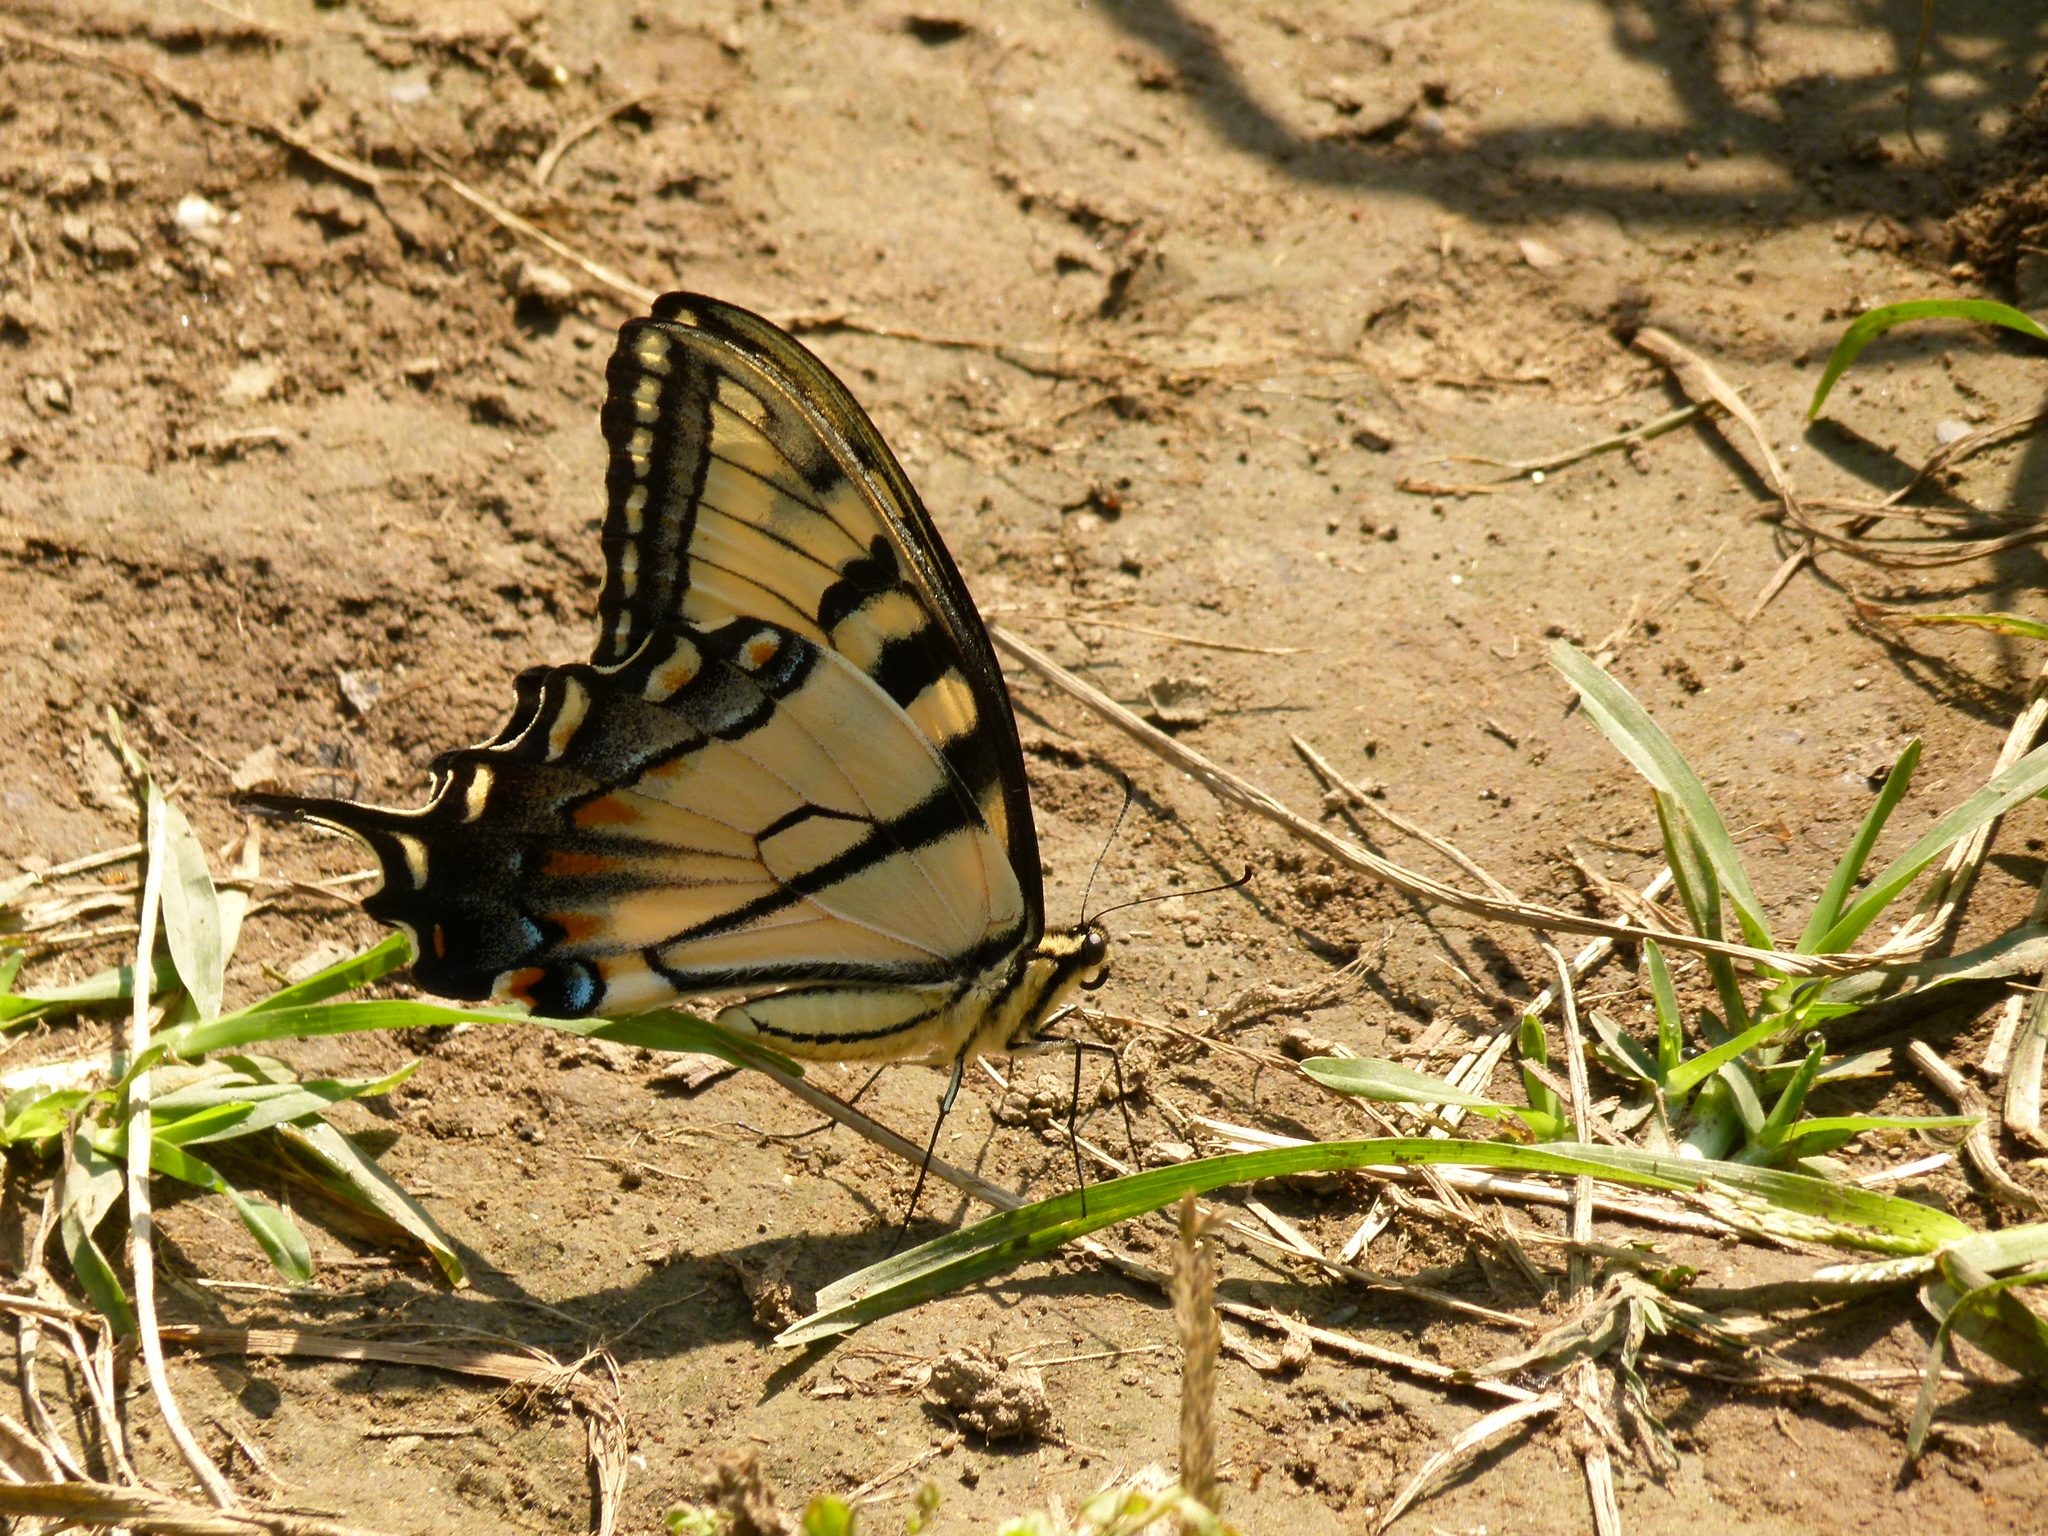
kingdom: Animalia
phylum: Arthropoda
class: Insecta
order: Lepidoptera
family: Papilionidae
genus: Papilio
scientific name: Papilio glaucus
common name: Tiger swallowtail
